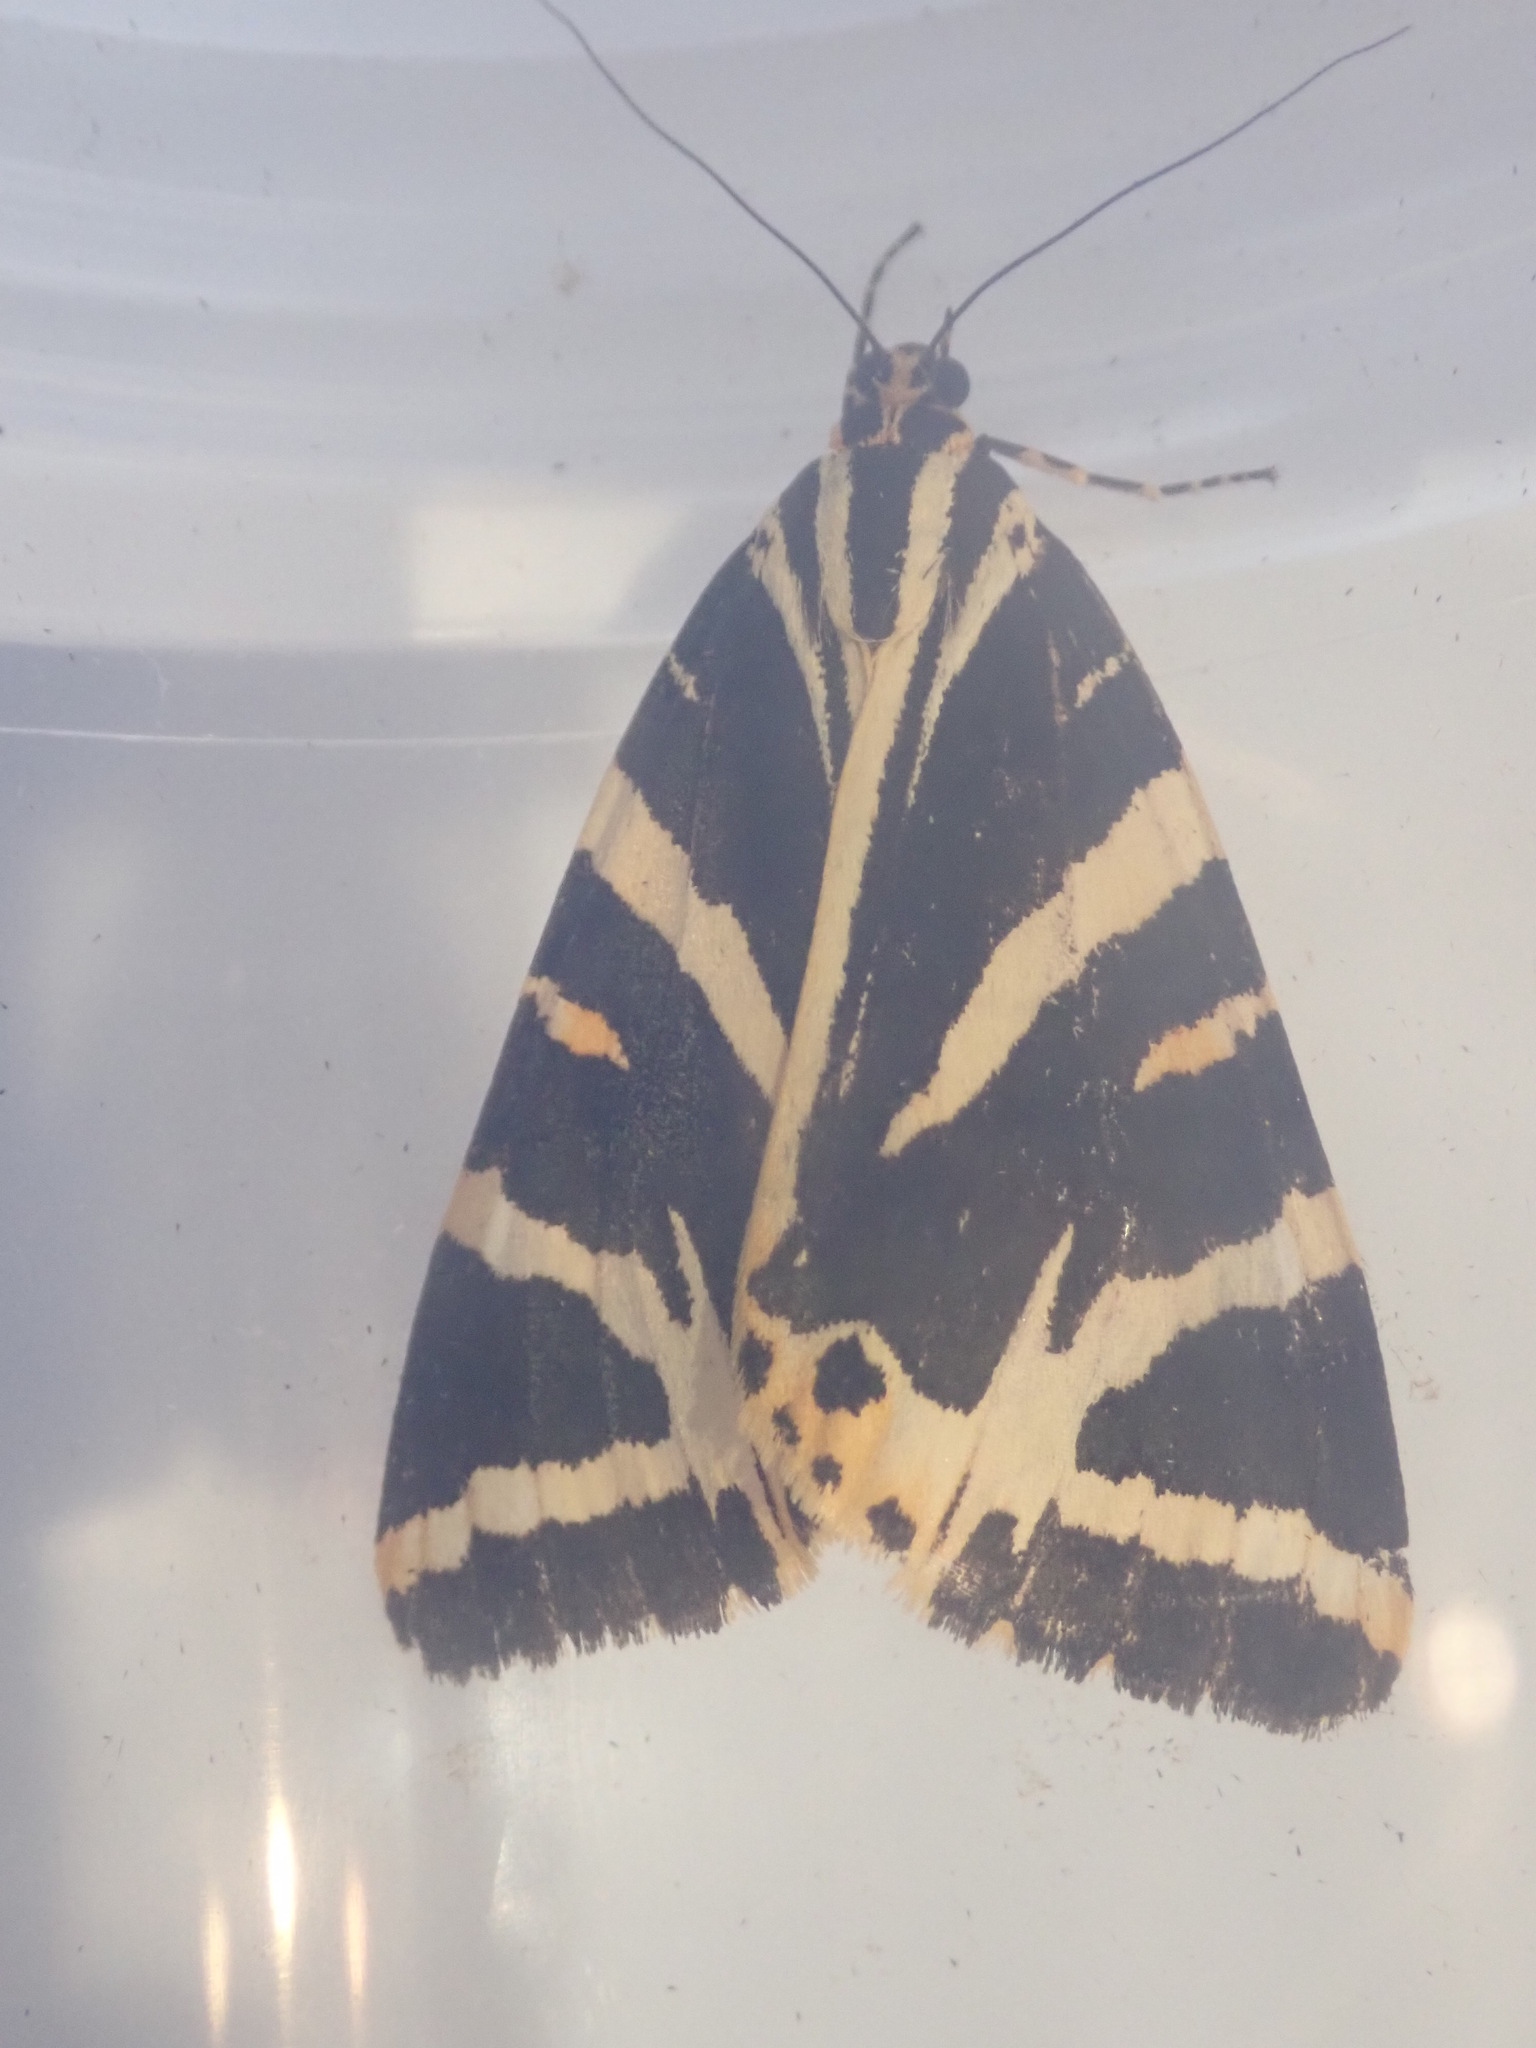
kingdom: Animalia
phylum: Arthropoda
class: Insecta
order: Lepidoptera
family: Erebidae
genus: Euplagia
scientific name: Euplagia quadripunctaria
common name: Jersey tiger
